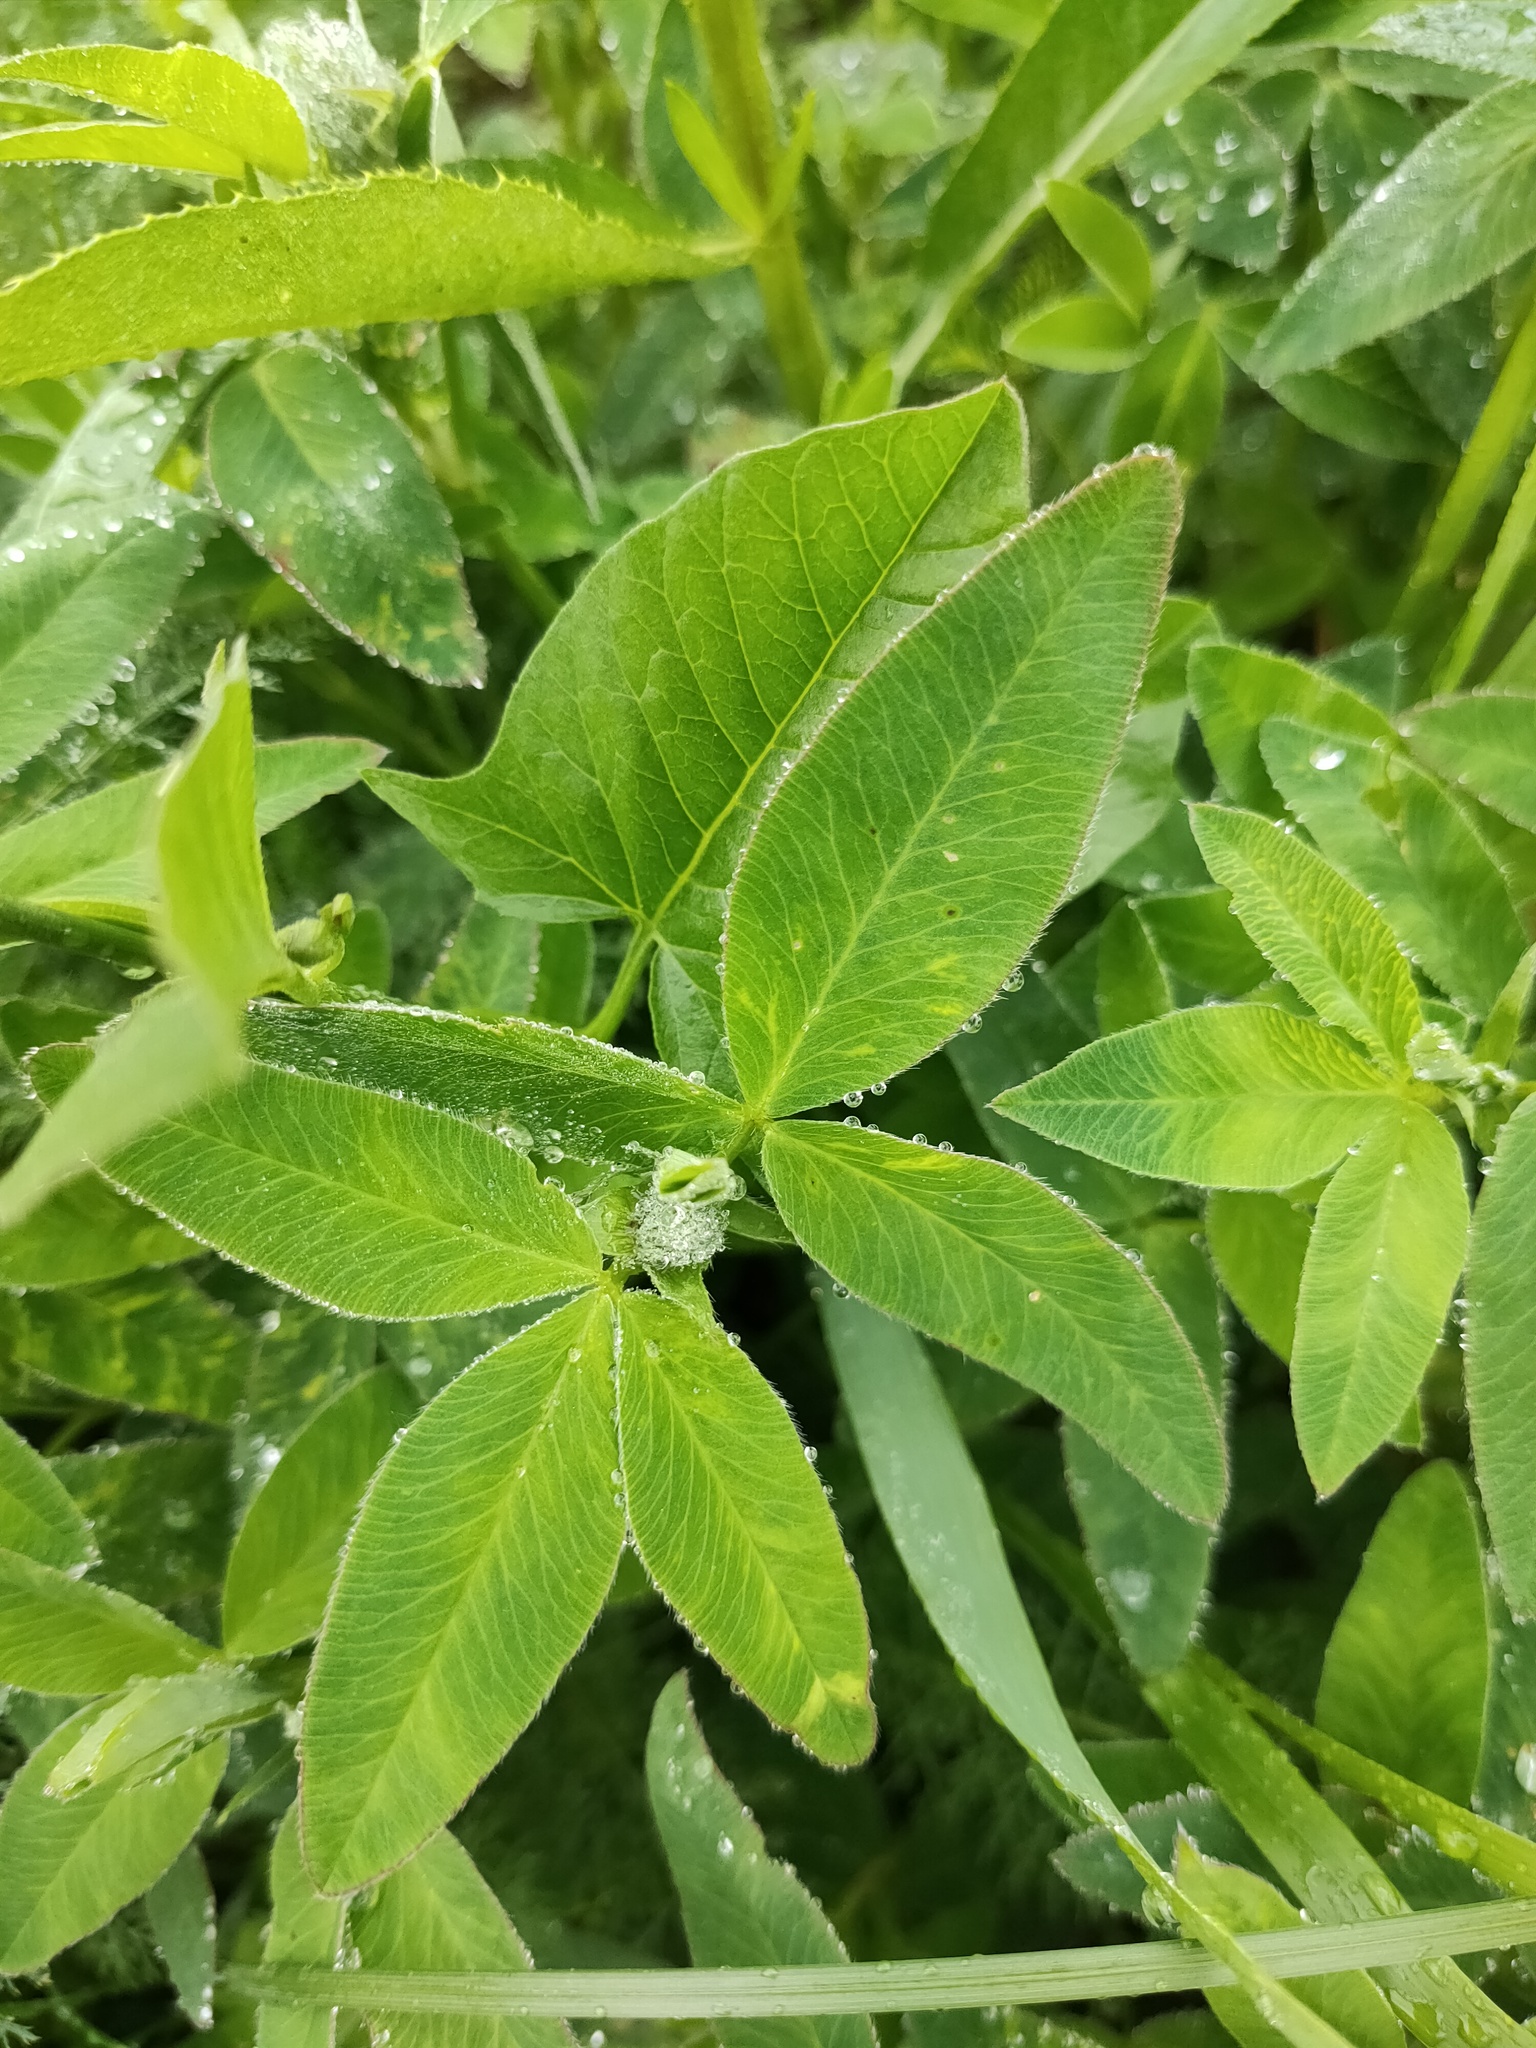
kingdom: Plantae
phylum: Tracheophyta
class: Magnoliopsida
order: Fabales
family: Fabaceae
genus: Trifolium
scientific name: Trifolium medium
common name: Zigzag clover
